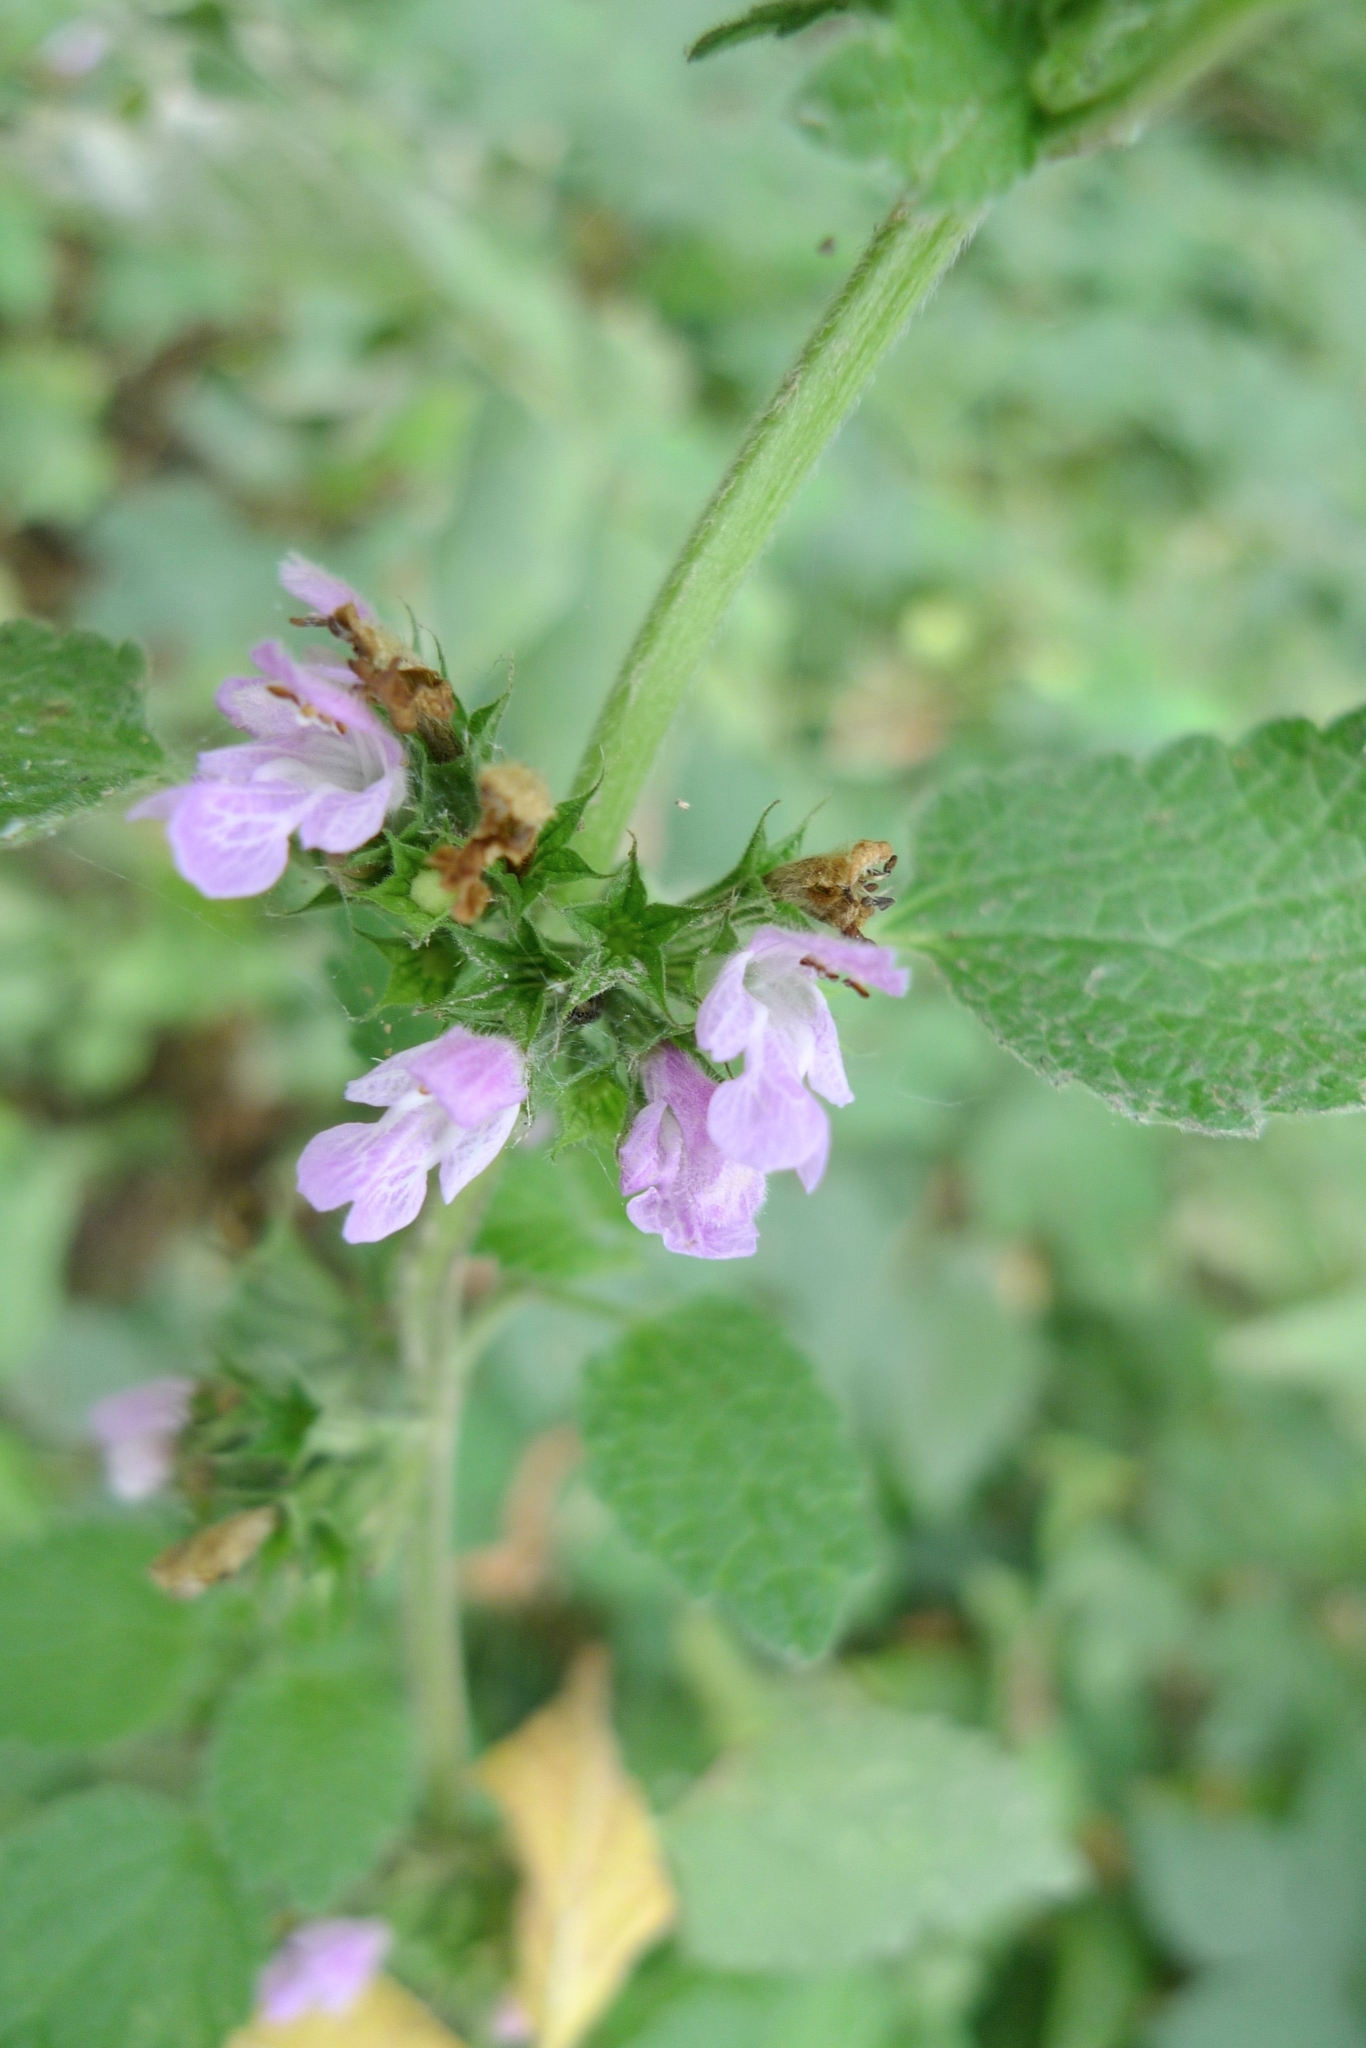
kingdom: Plantae
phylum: Tracheophyta
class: Magnoliopsida
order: Lamiales
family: Lamiaceae
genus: Ballota
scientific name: Ballota nigra
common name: Black horehound
